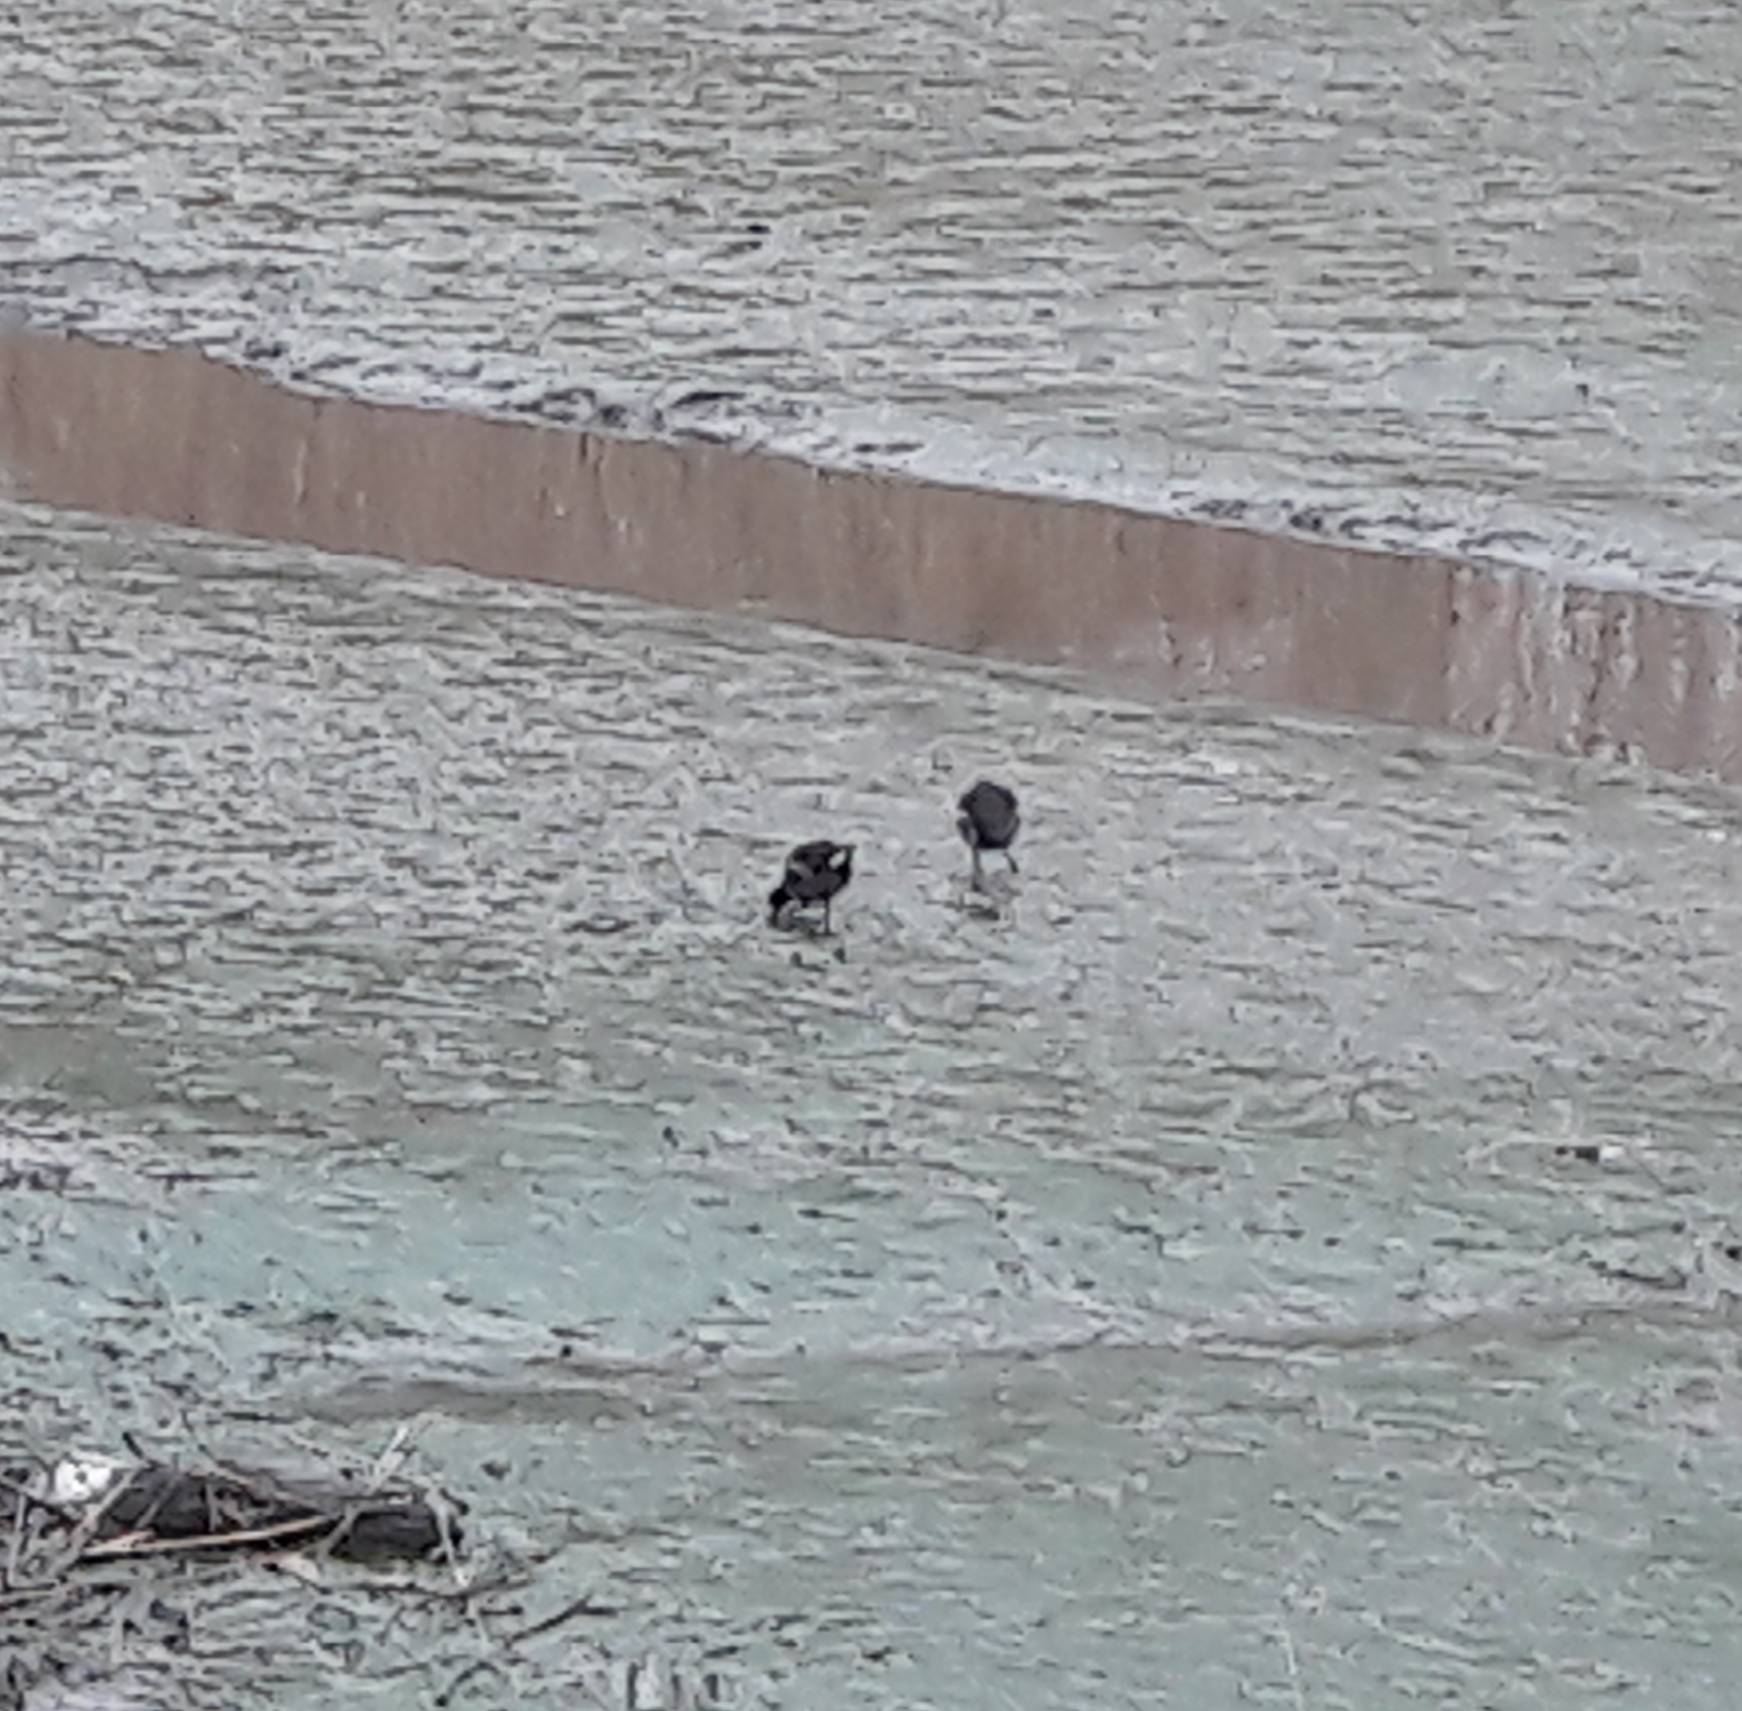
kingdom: Animalia
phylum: Chordata
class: Aves
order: Gruiformes
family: Rallidae
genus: Gallinula
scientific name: Gallinula chloropus
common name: Common moorhen
